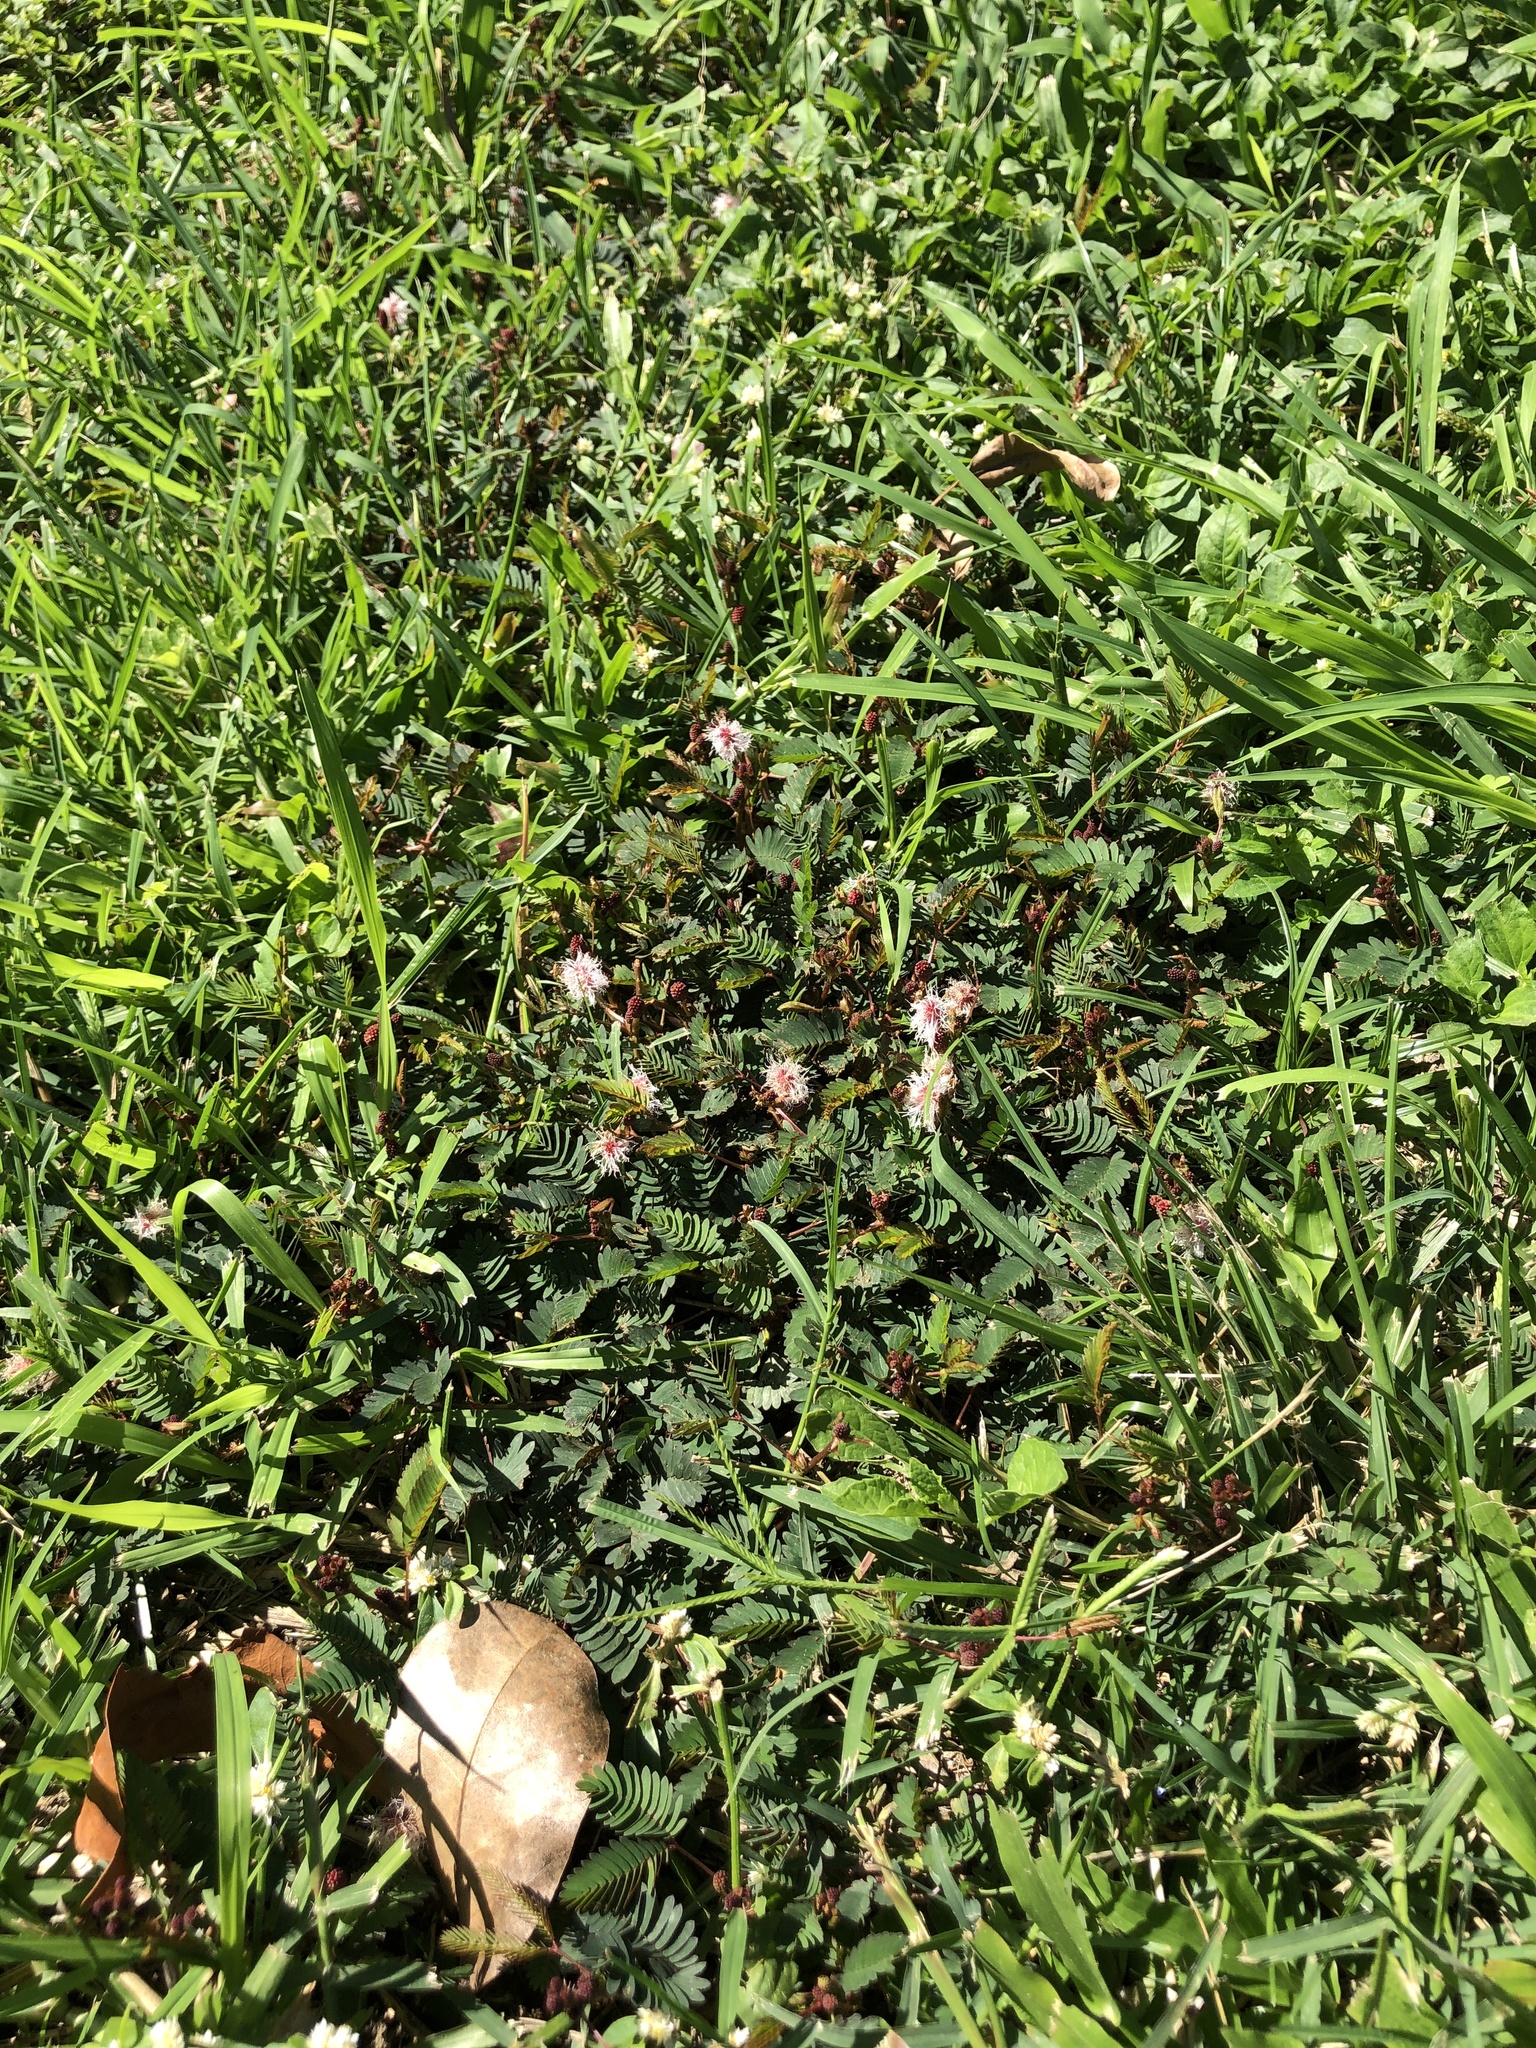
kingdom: Plantae
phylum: Tracheophyta
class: Magnoliopsida
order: Fabales
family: Fabaceae
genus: Mimosa
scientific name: Mimosa pudica
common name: Sensitive plant
